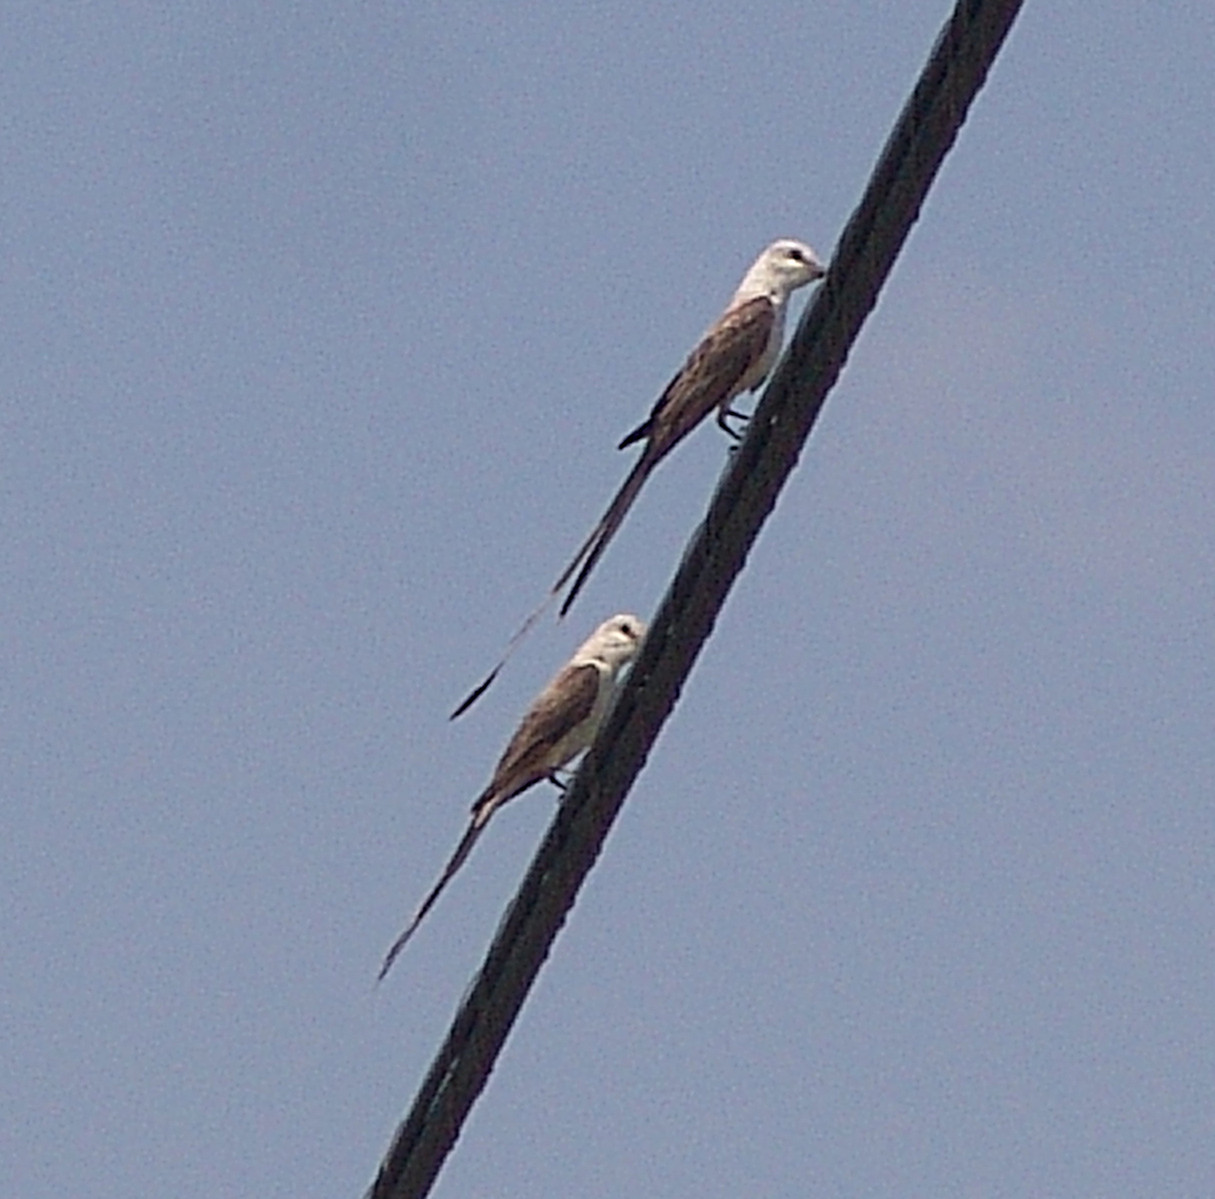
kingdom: Animalia
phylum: Chordata
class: Aves
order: Passeriformes
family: Tyrannidae
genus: Tyrannus
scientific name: Tyrannus forficatus
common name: Scissor-tailed flycatcher
